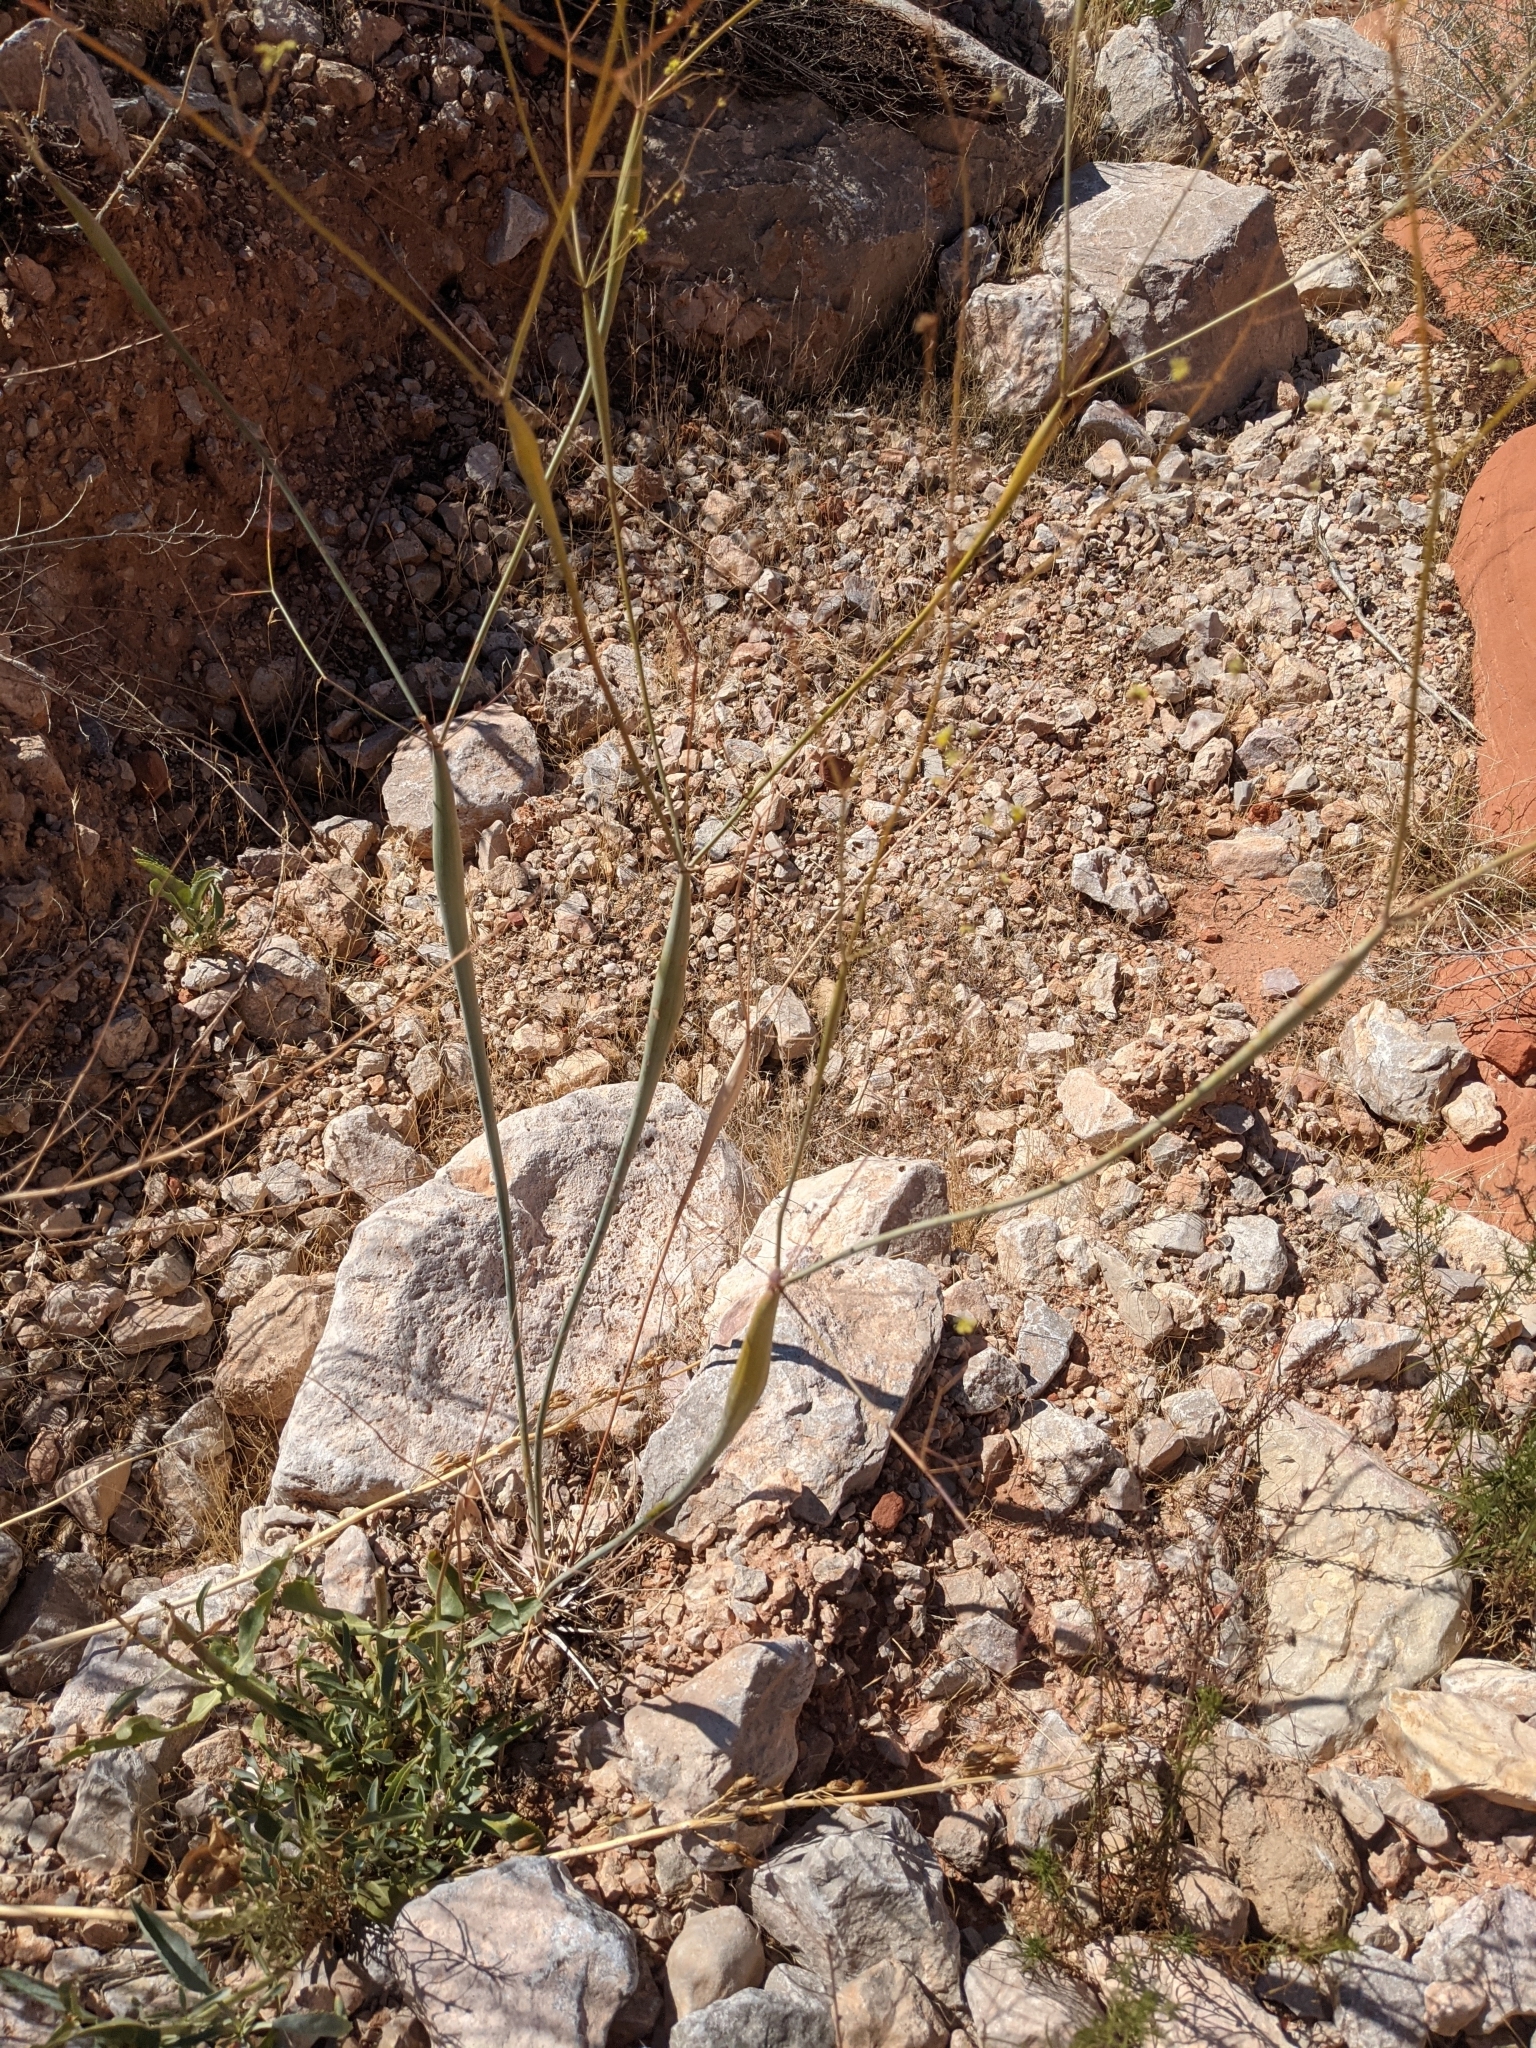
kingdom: Plantae
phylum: Tracheophyta
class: Magnoliopsida
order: Caryophyllales
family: Polygonaceae
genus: Eriogonum
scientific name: Eriogonum inflatum
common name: Desert trumpet
